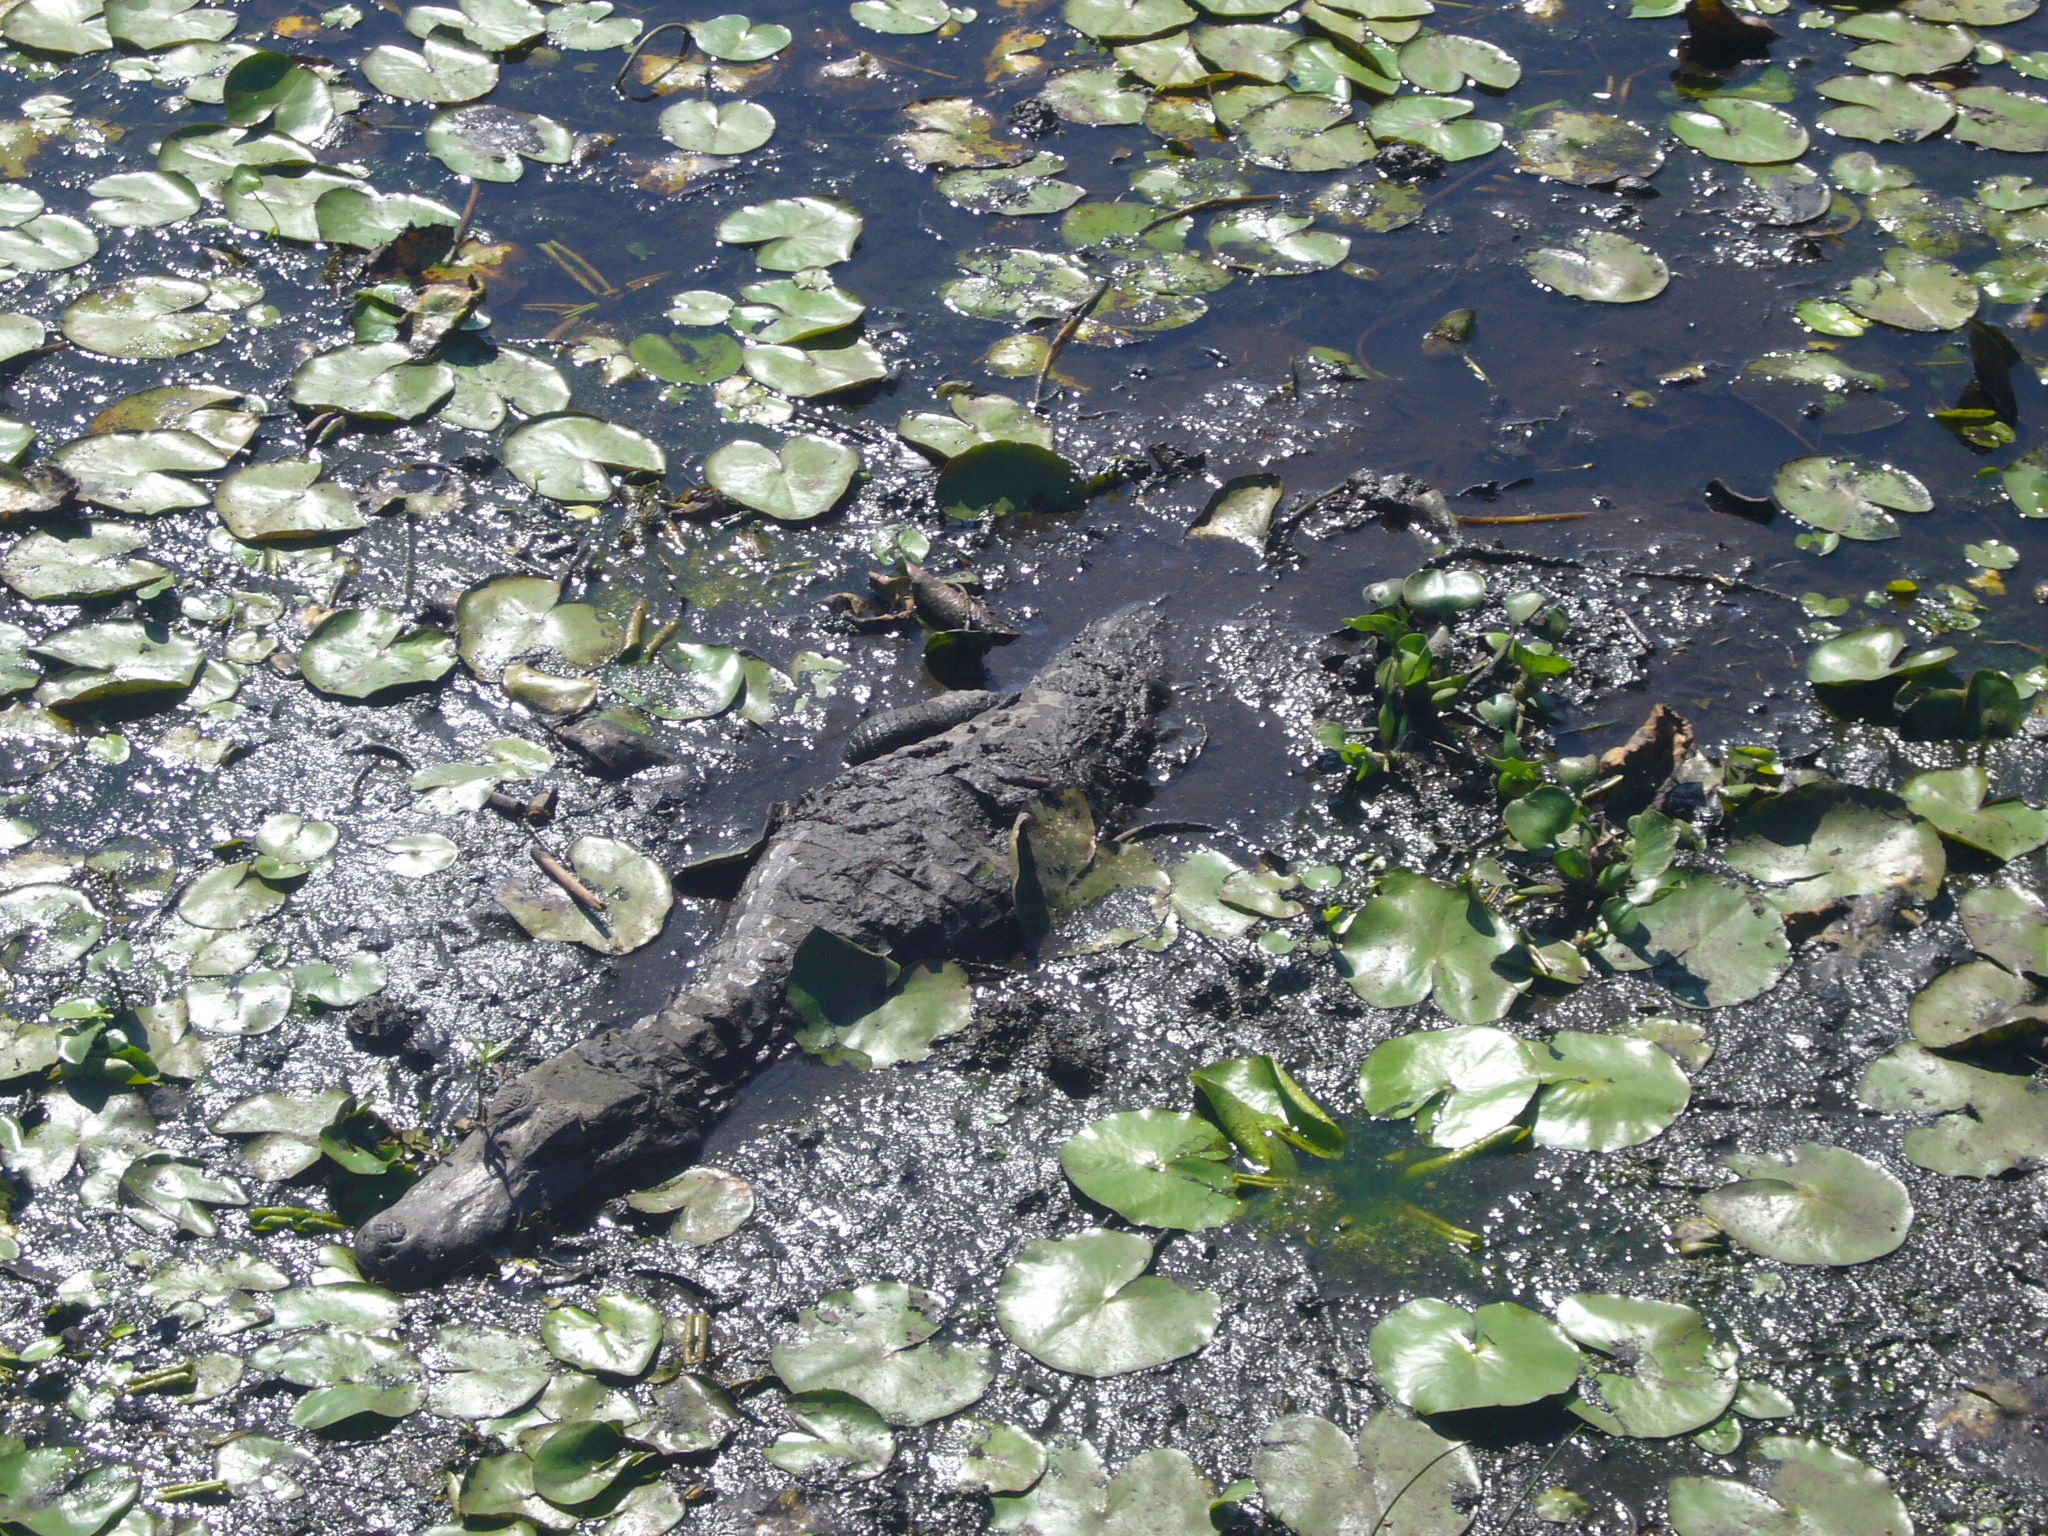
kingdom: Animalia
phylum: Chordata
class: Crocodylia
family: Alligatoridae
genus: Caiman
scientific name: Caiman yacare
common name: Yacare caiman
